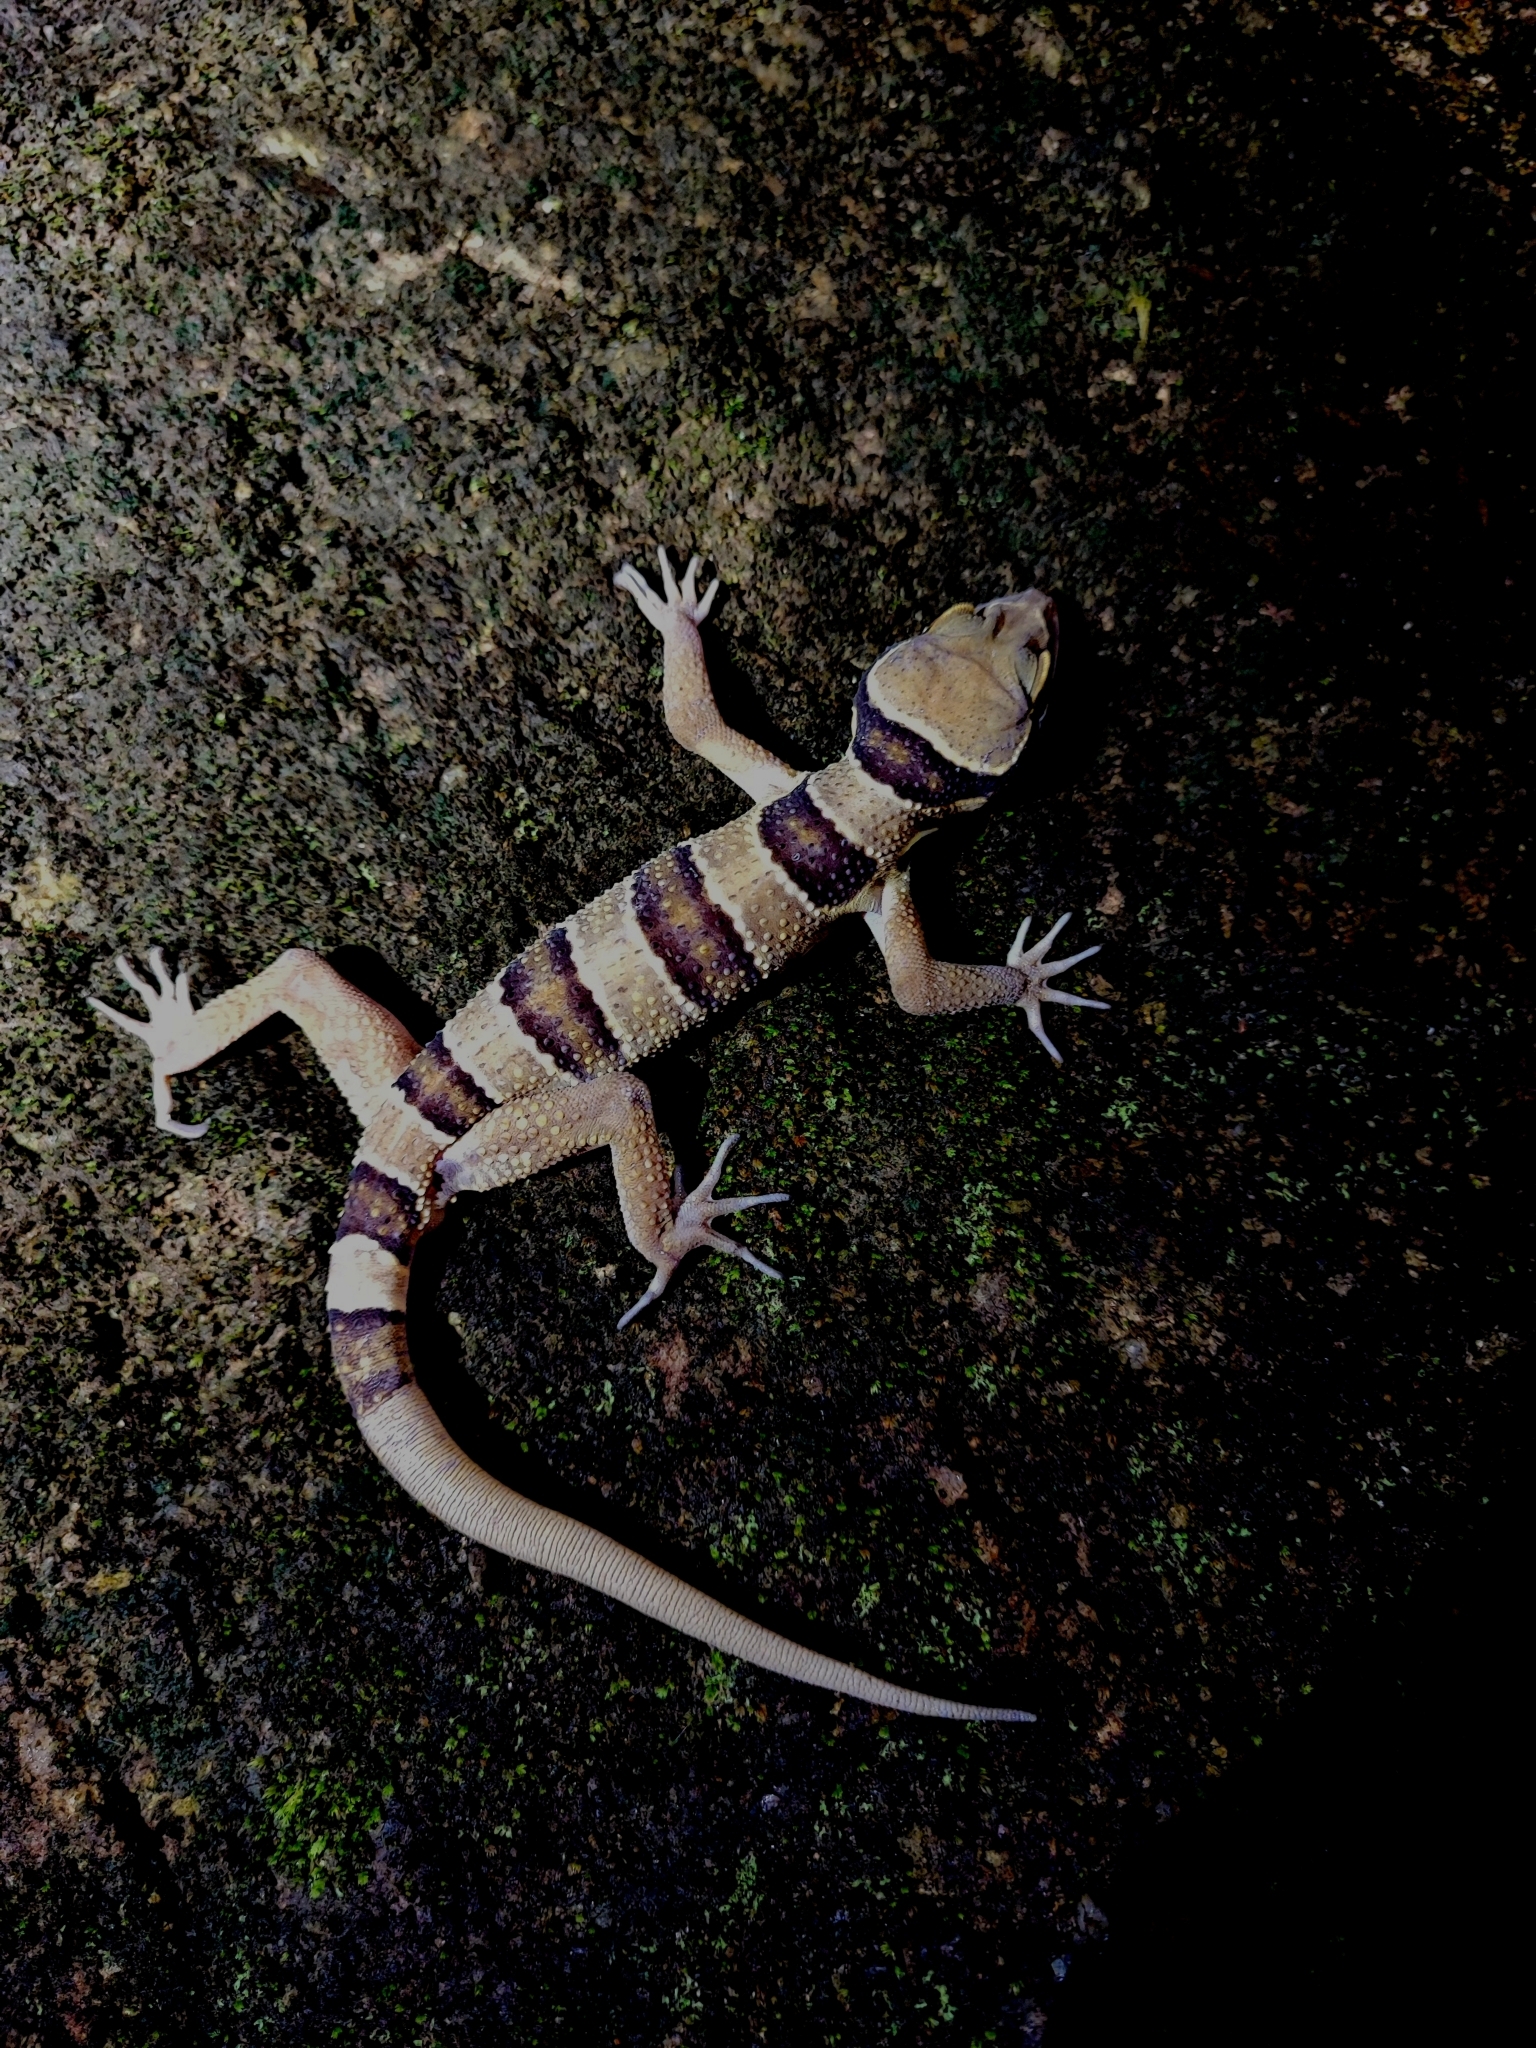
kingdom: Animalia
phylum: Chordata
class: Squamata
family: Gekkonidae
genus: Cyrtodactylus
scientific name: Cyrtodactylus lekaguli
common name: Tuk-kai boonsong bent-toed gecko
